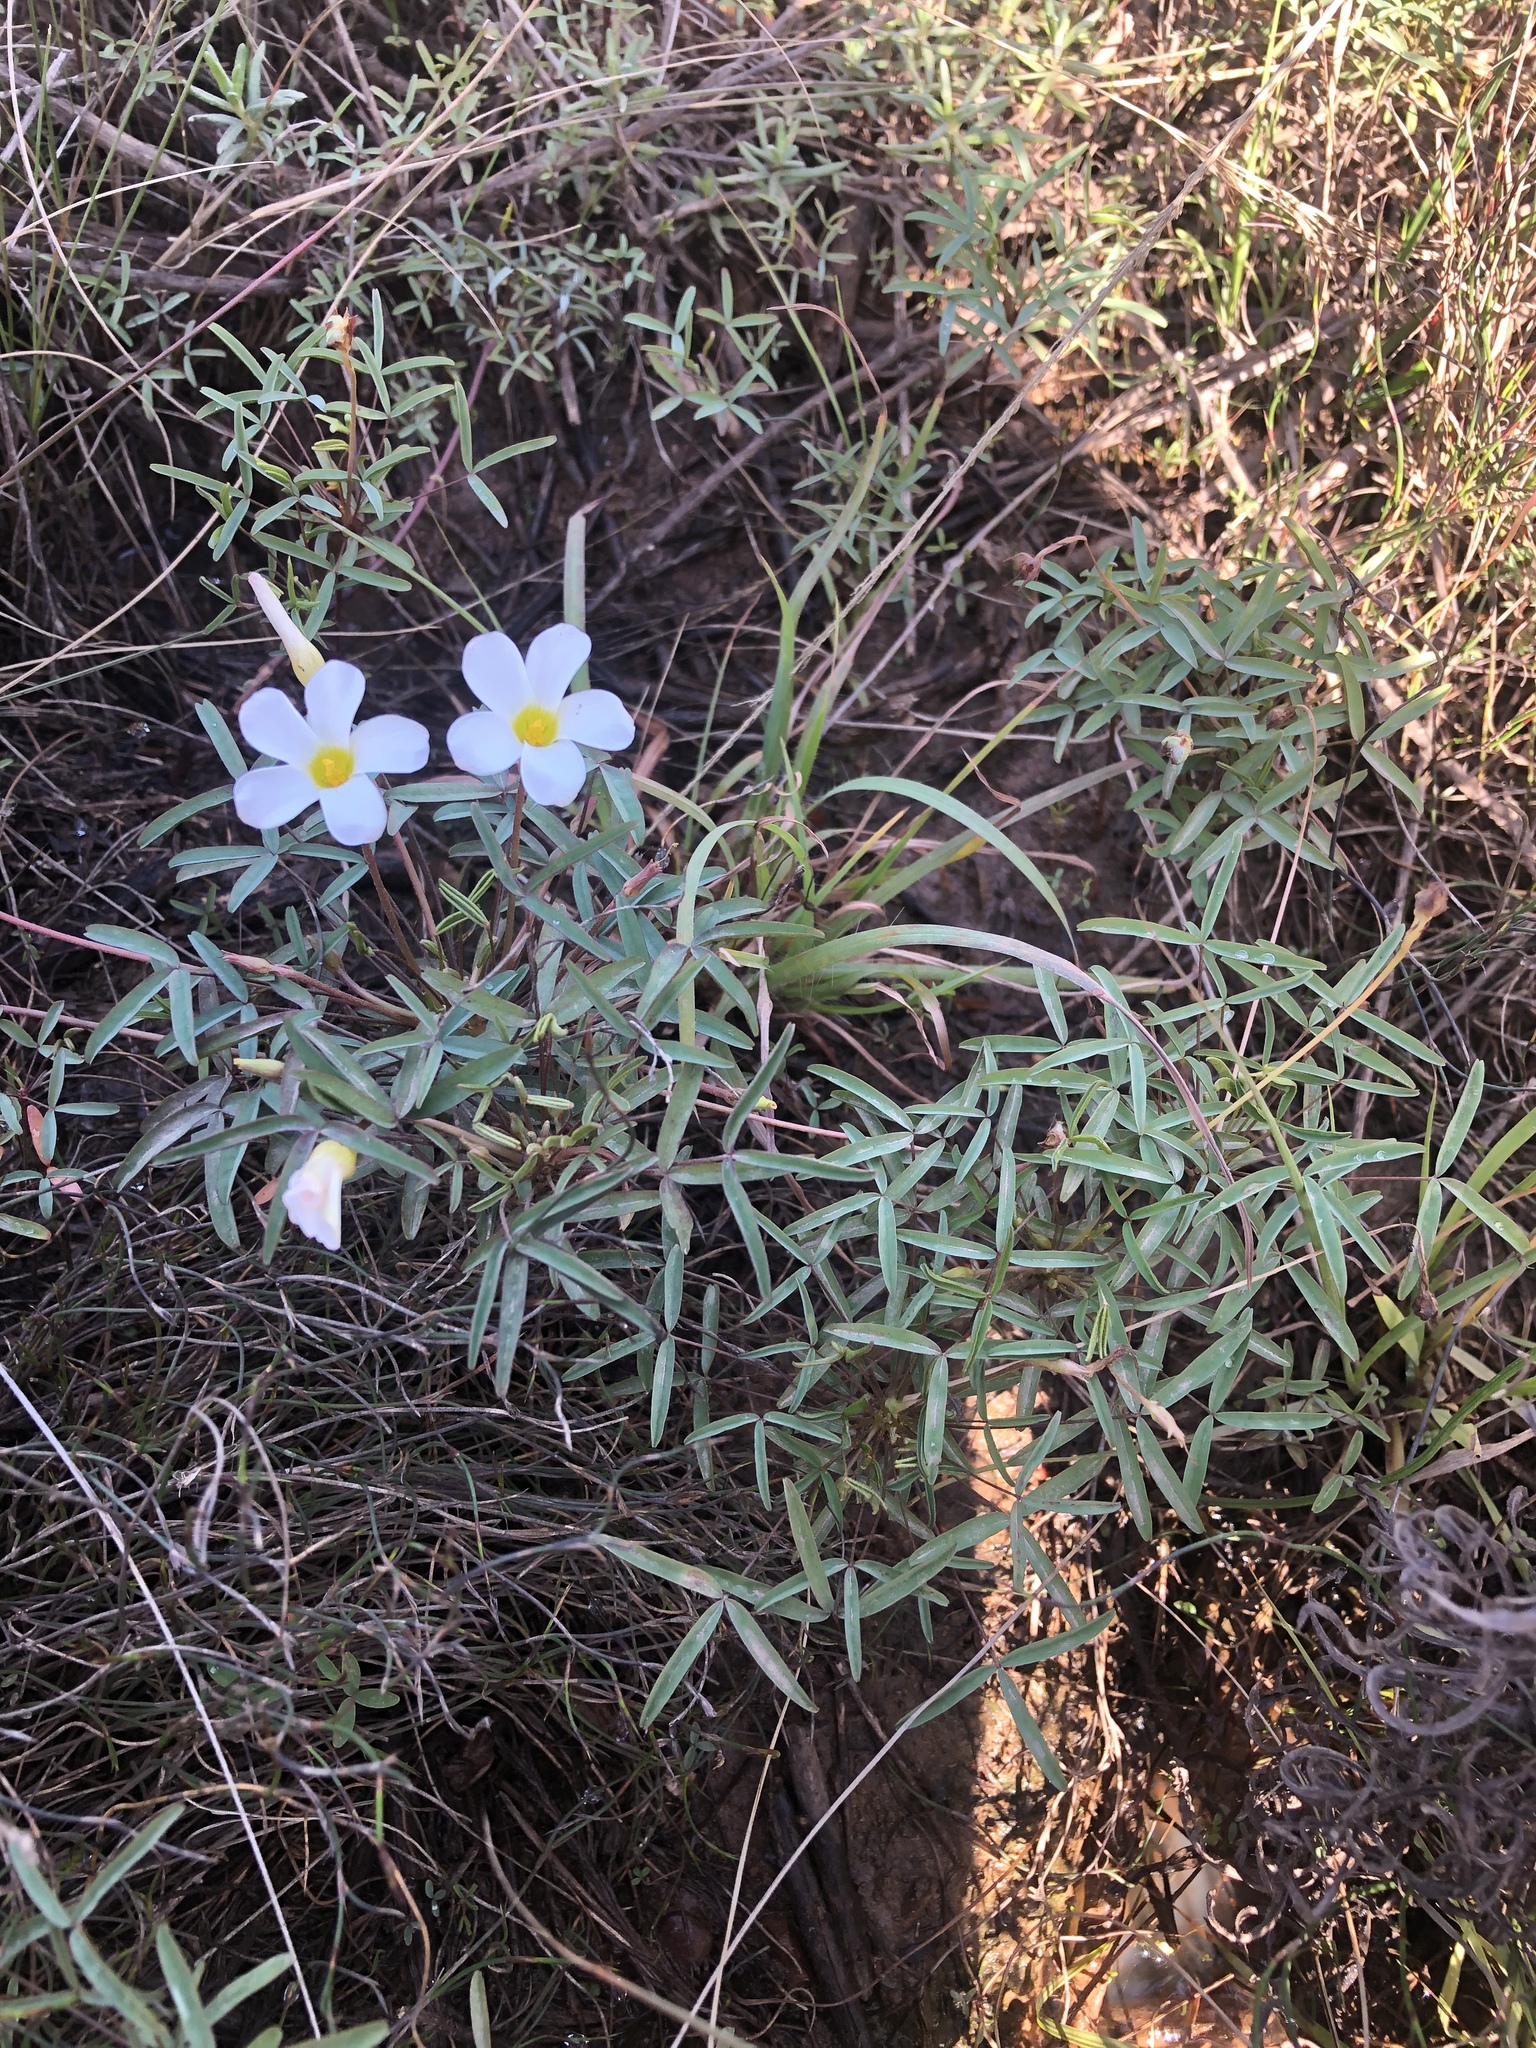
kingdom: Plantae
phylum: Tracheophyta
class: Magnoliopsida
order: Oxalidales
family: Oxalidaceae
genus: Oxalis
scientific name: Oxalis ciliaris
